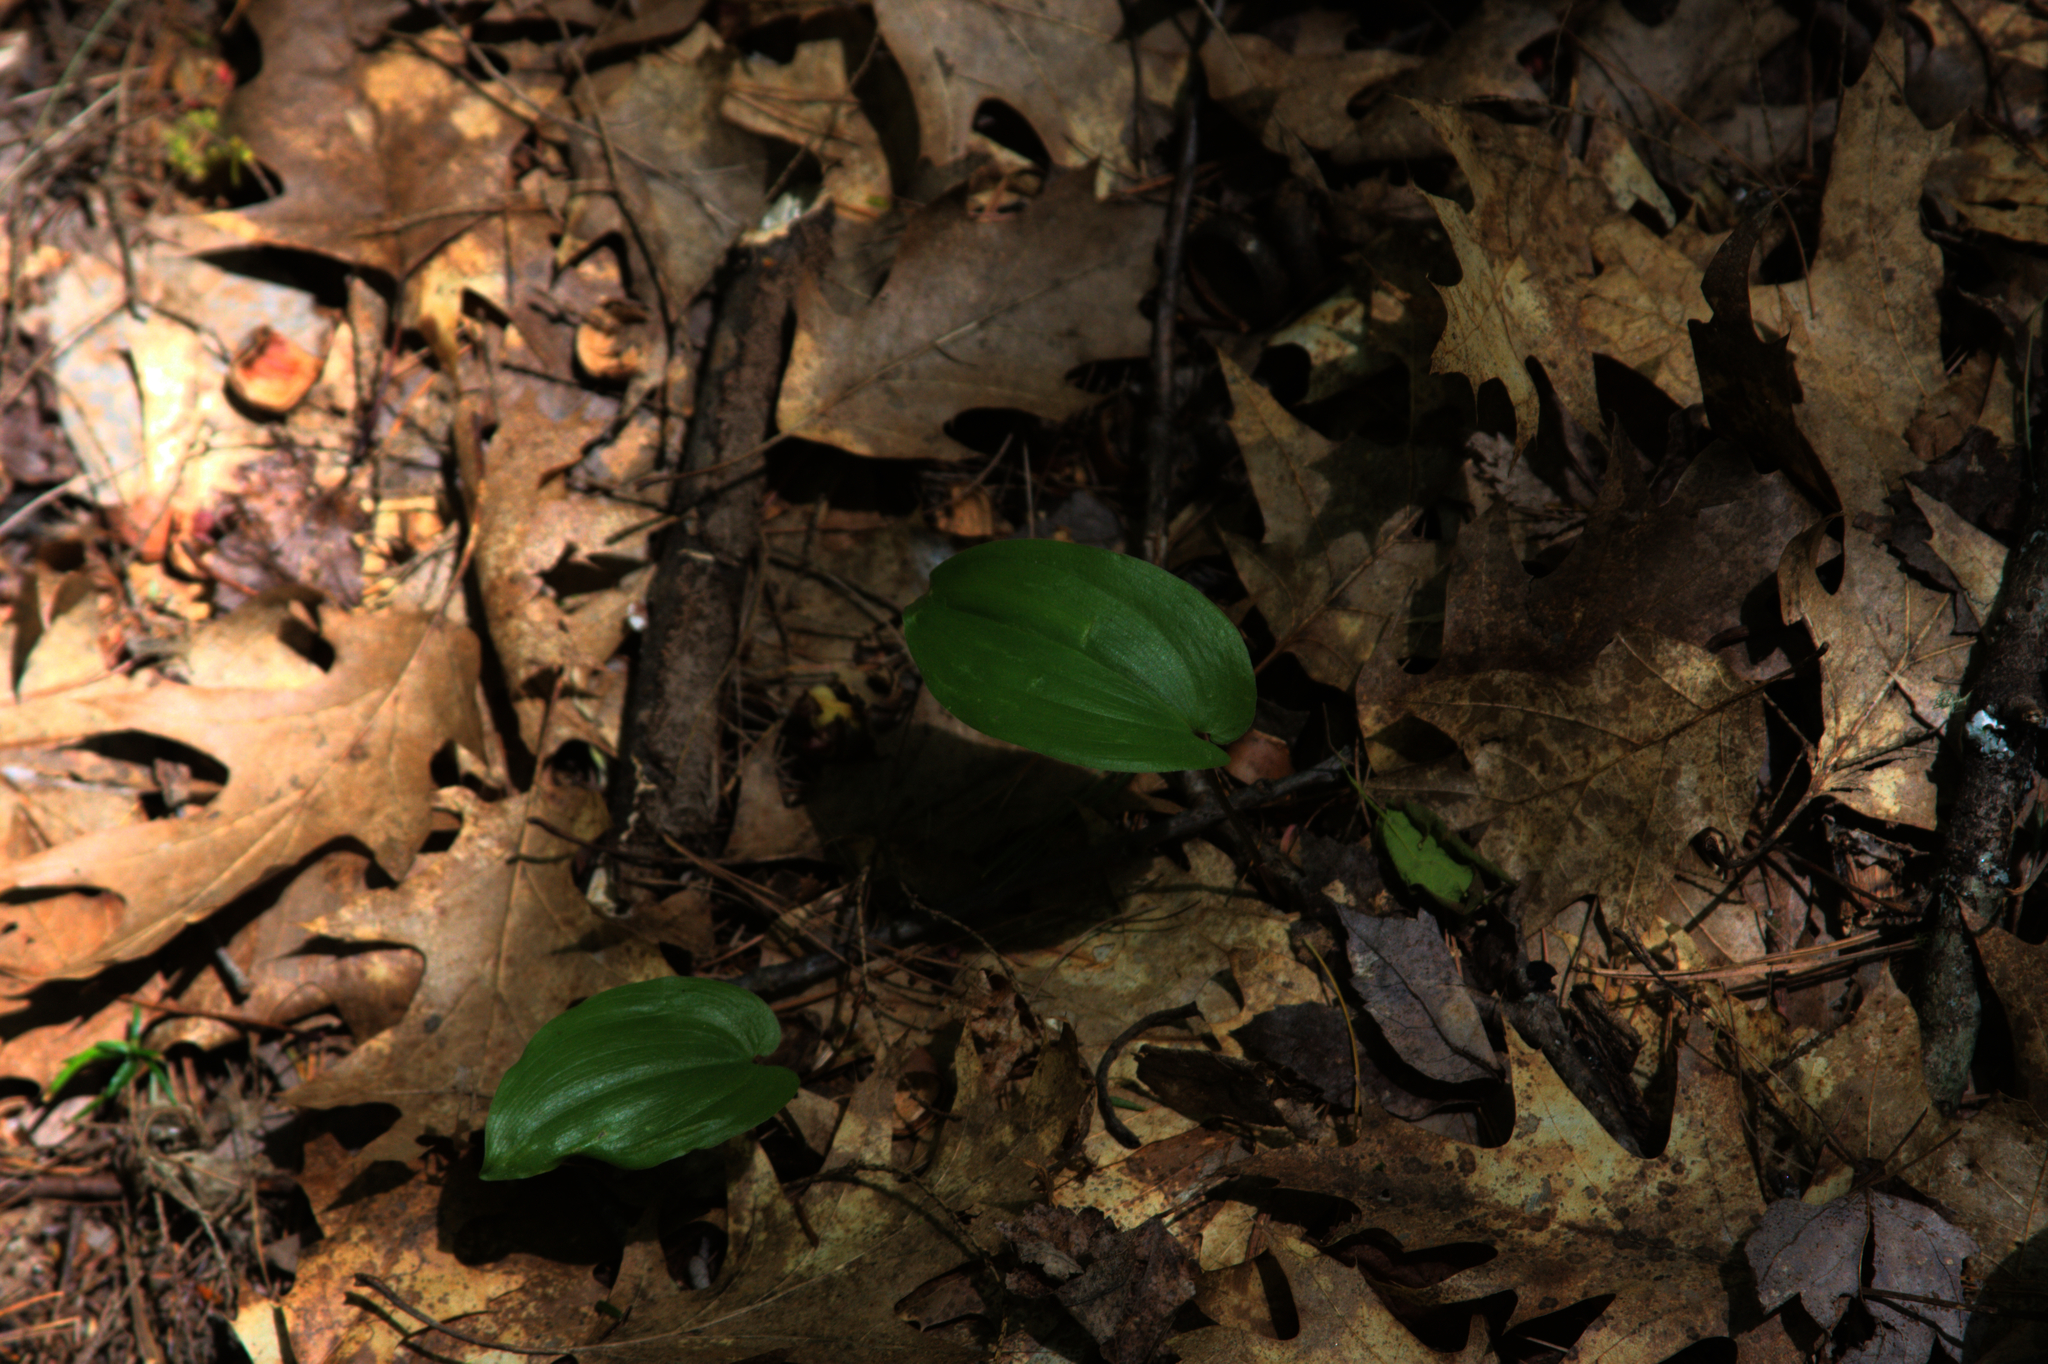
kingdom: Plantae
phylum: Tracheophyta
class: Liliopsida
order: Asparagales
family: Asparagaceae
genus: Maianthemum
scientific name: Maianthemum canadense
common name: False lily-of-the-valley
